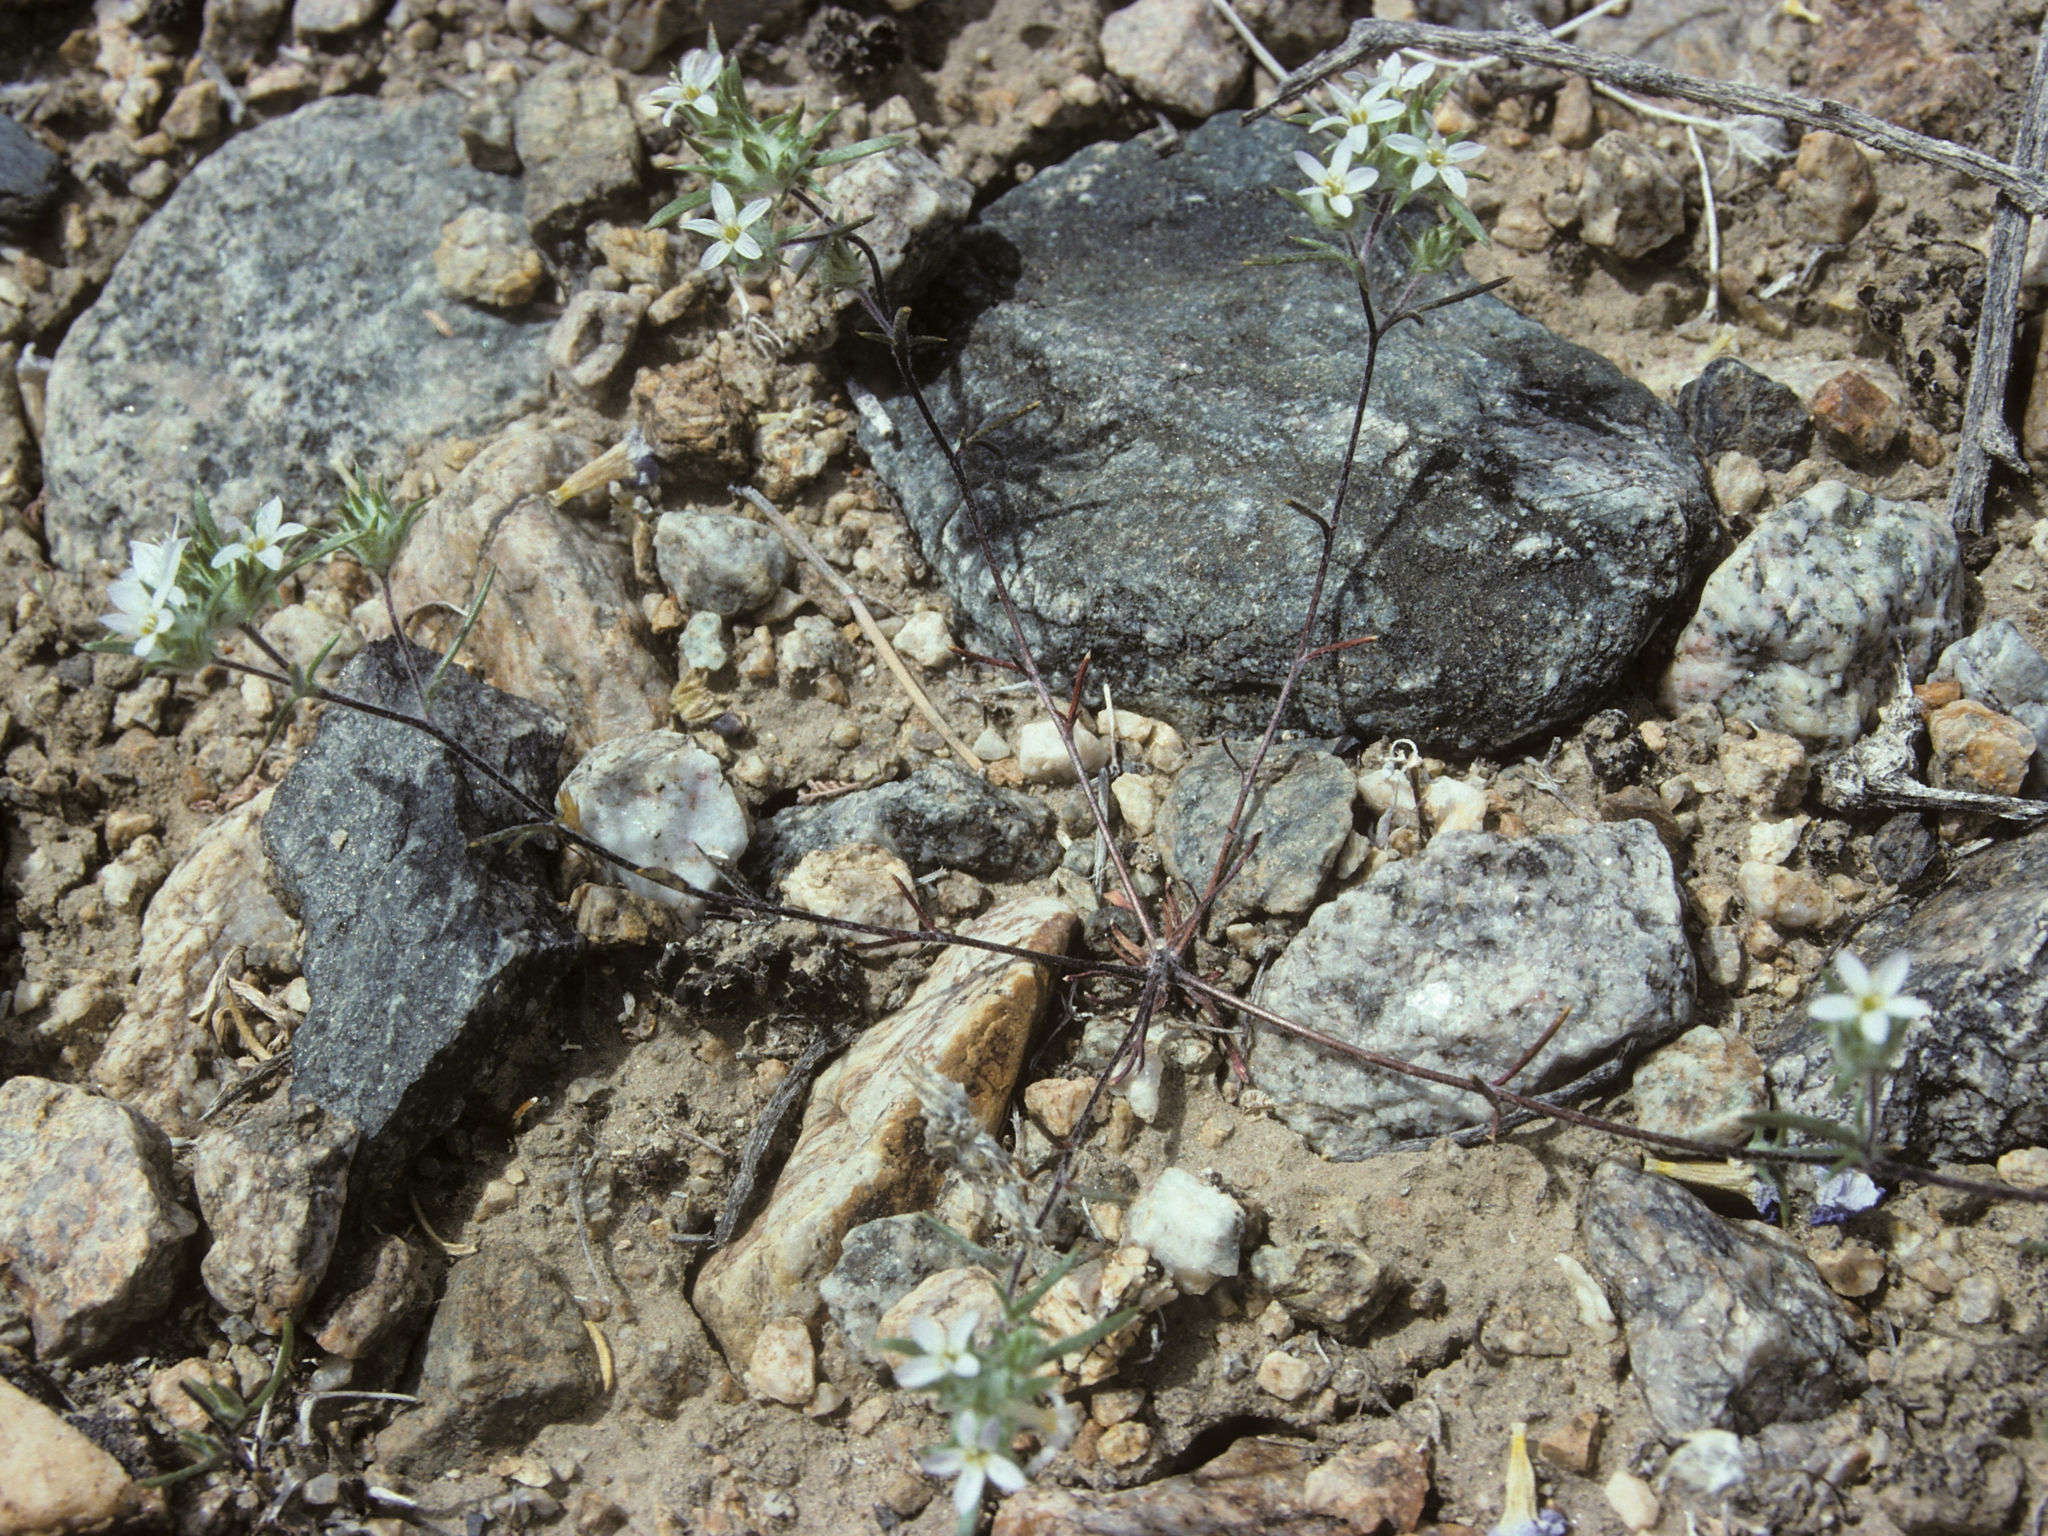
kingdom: Plantae
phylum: Tracheophyta
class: Magnoliopsida
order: Ericales
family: Polemoniaceae
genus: Eriastrum
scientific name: Eriastrum diffusum
